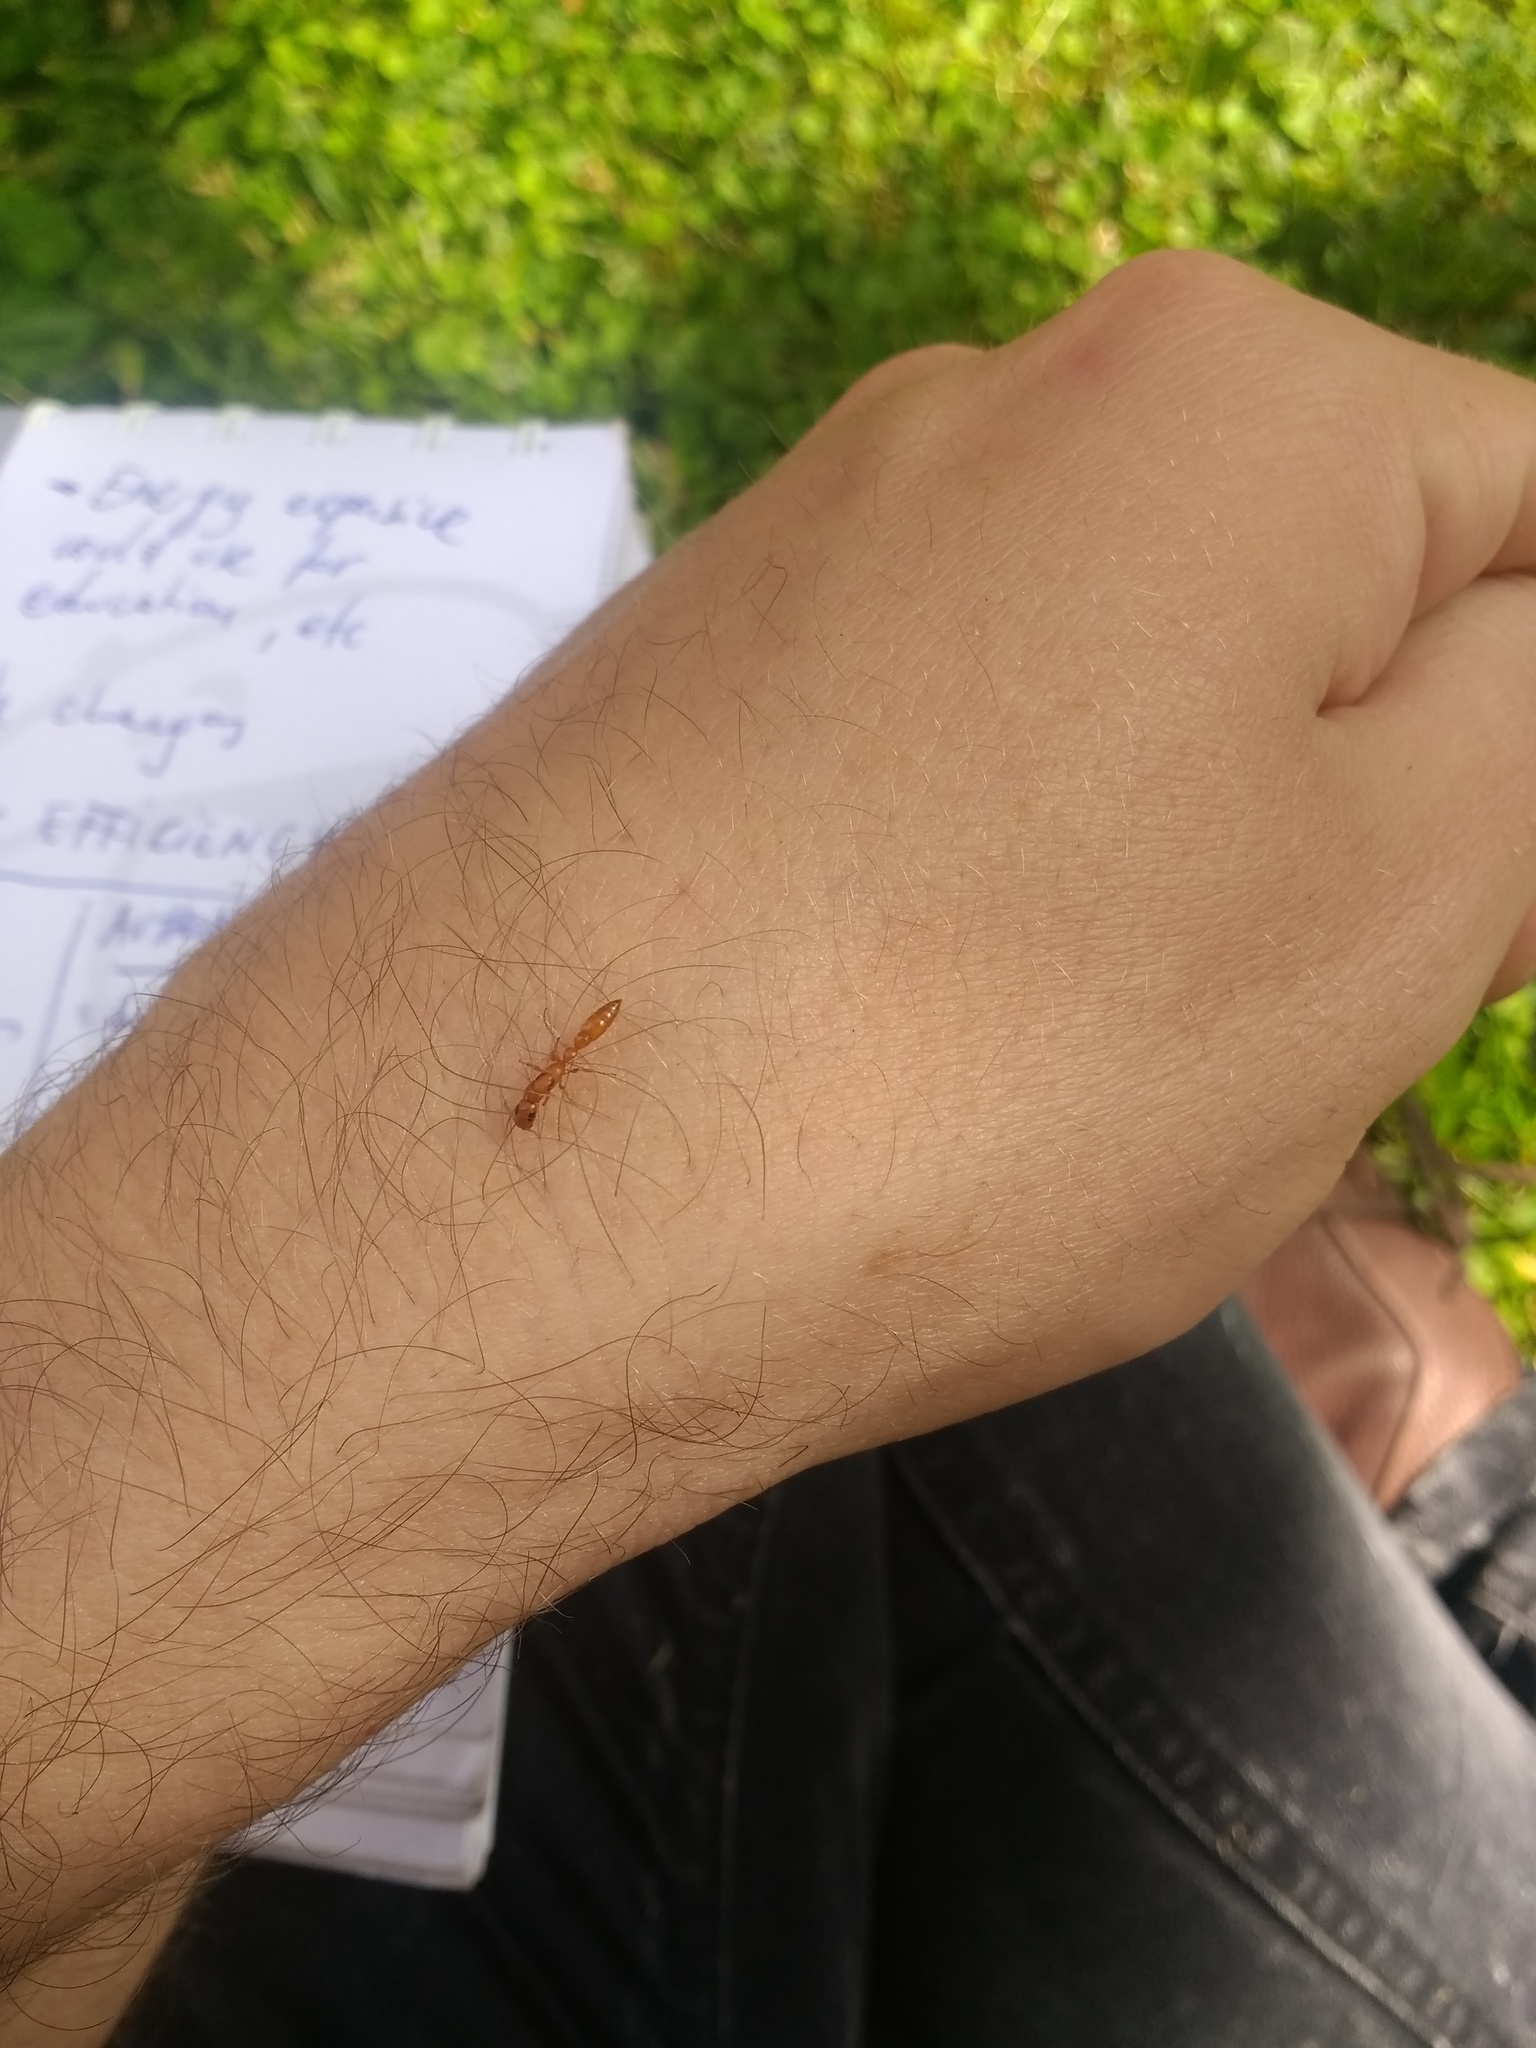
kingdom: Animalia
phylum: Arthropoda
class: Insecta
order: Hymenoptera
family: Formicidae
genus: Tetraponera
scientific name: Tetraponera natalensis
